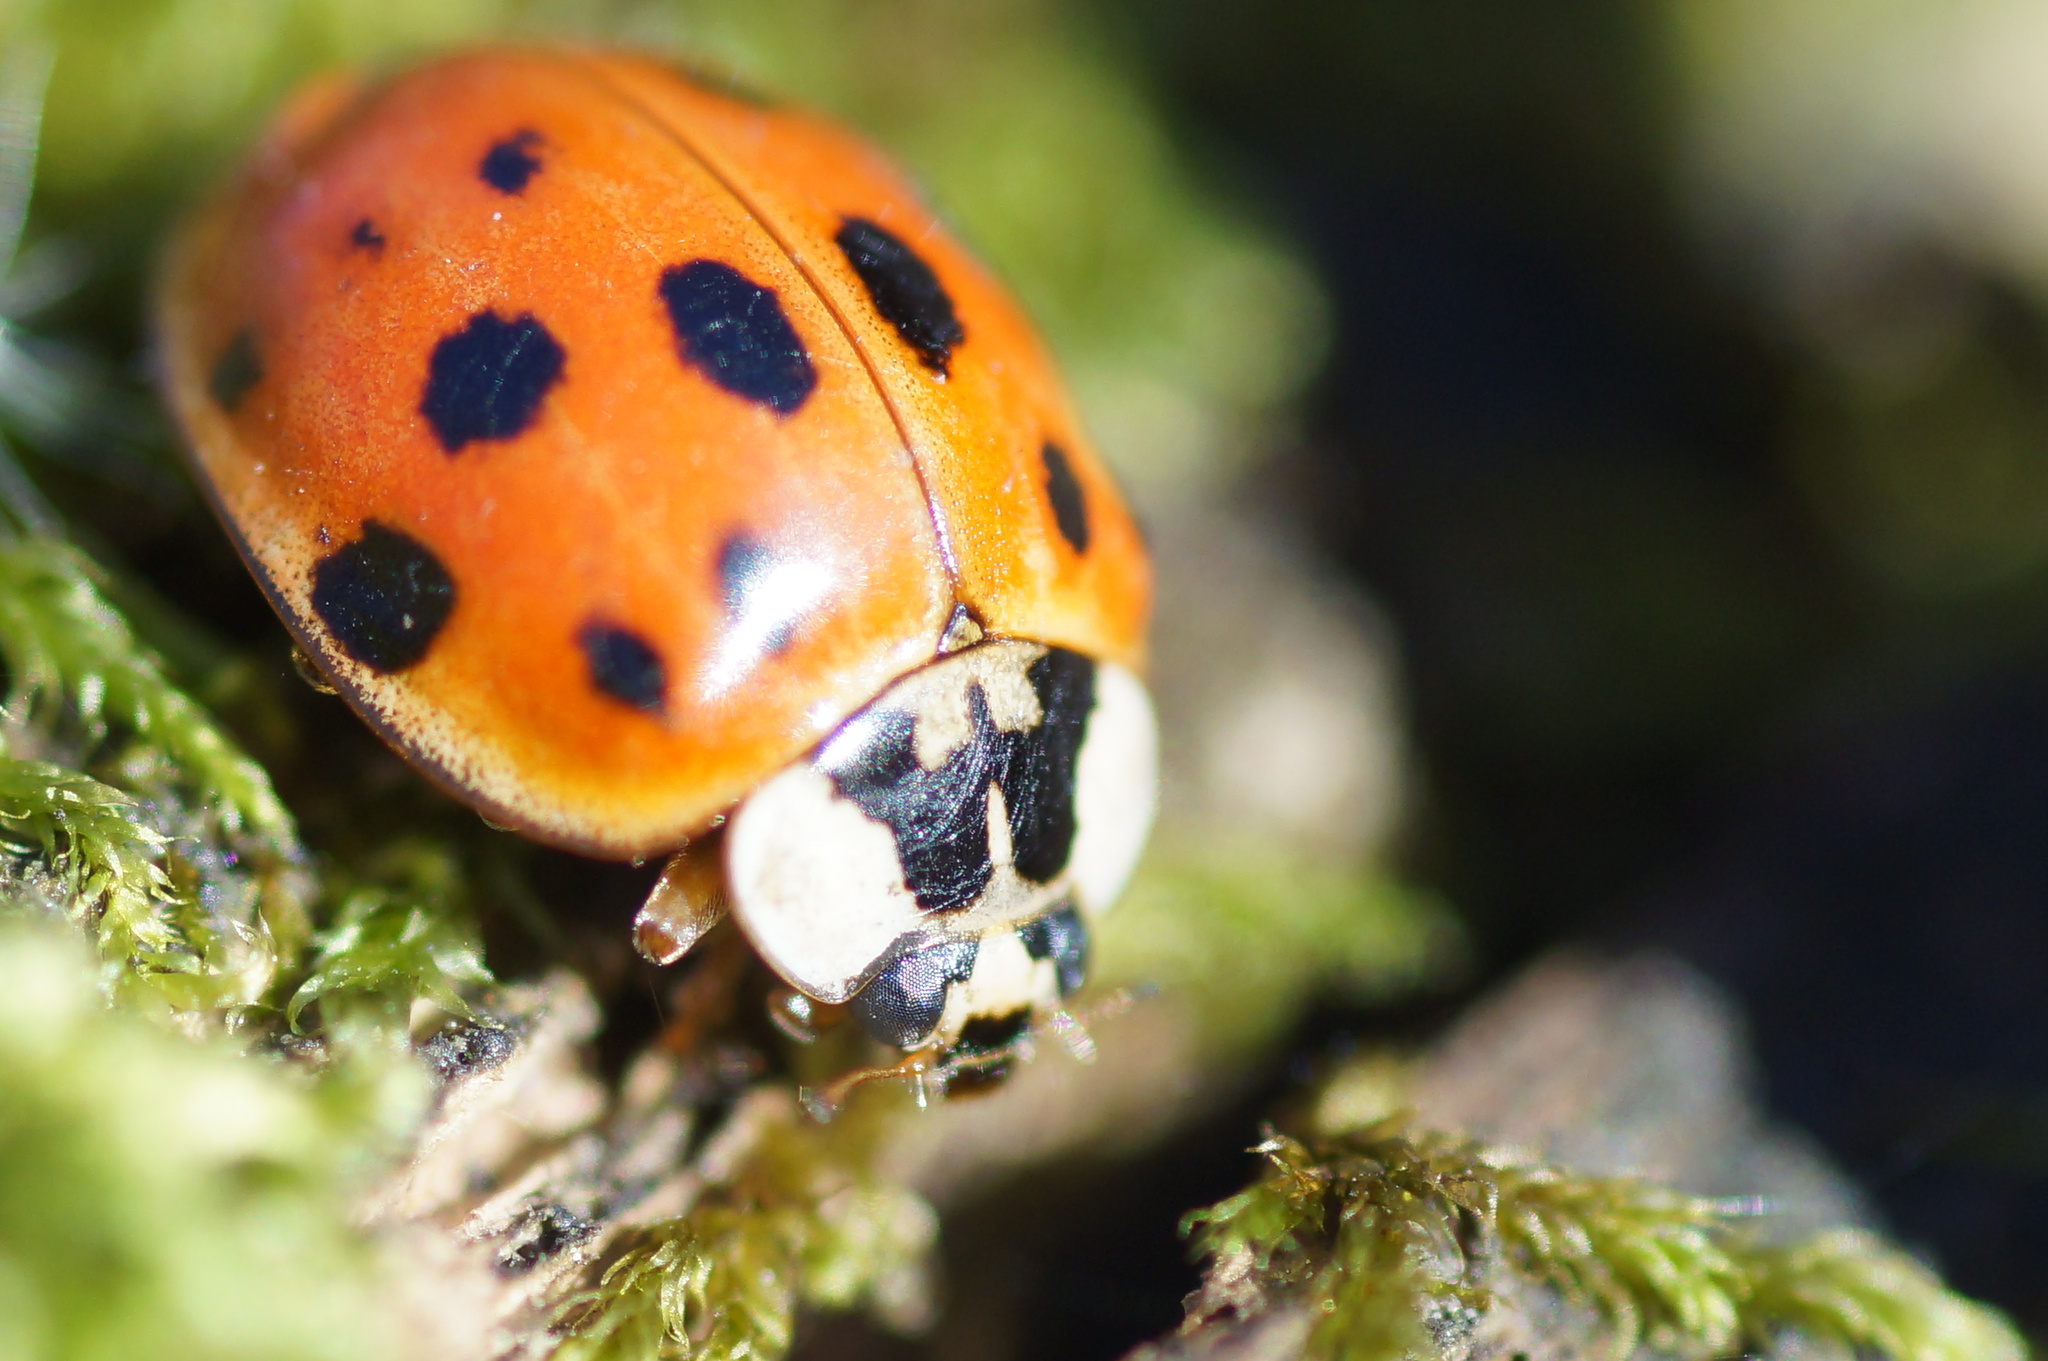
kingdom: Animalia
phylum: Arthropoda
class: Insecta
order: Coleoptera
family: Coccinellidae
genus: Harmonia
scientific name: Harmonia axyridis
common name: Harlequin ladybird
